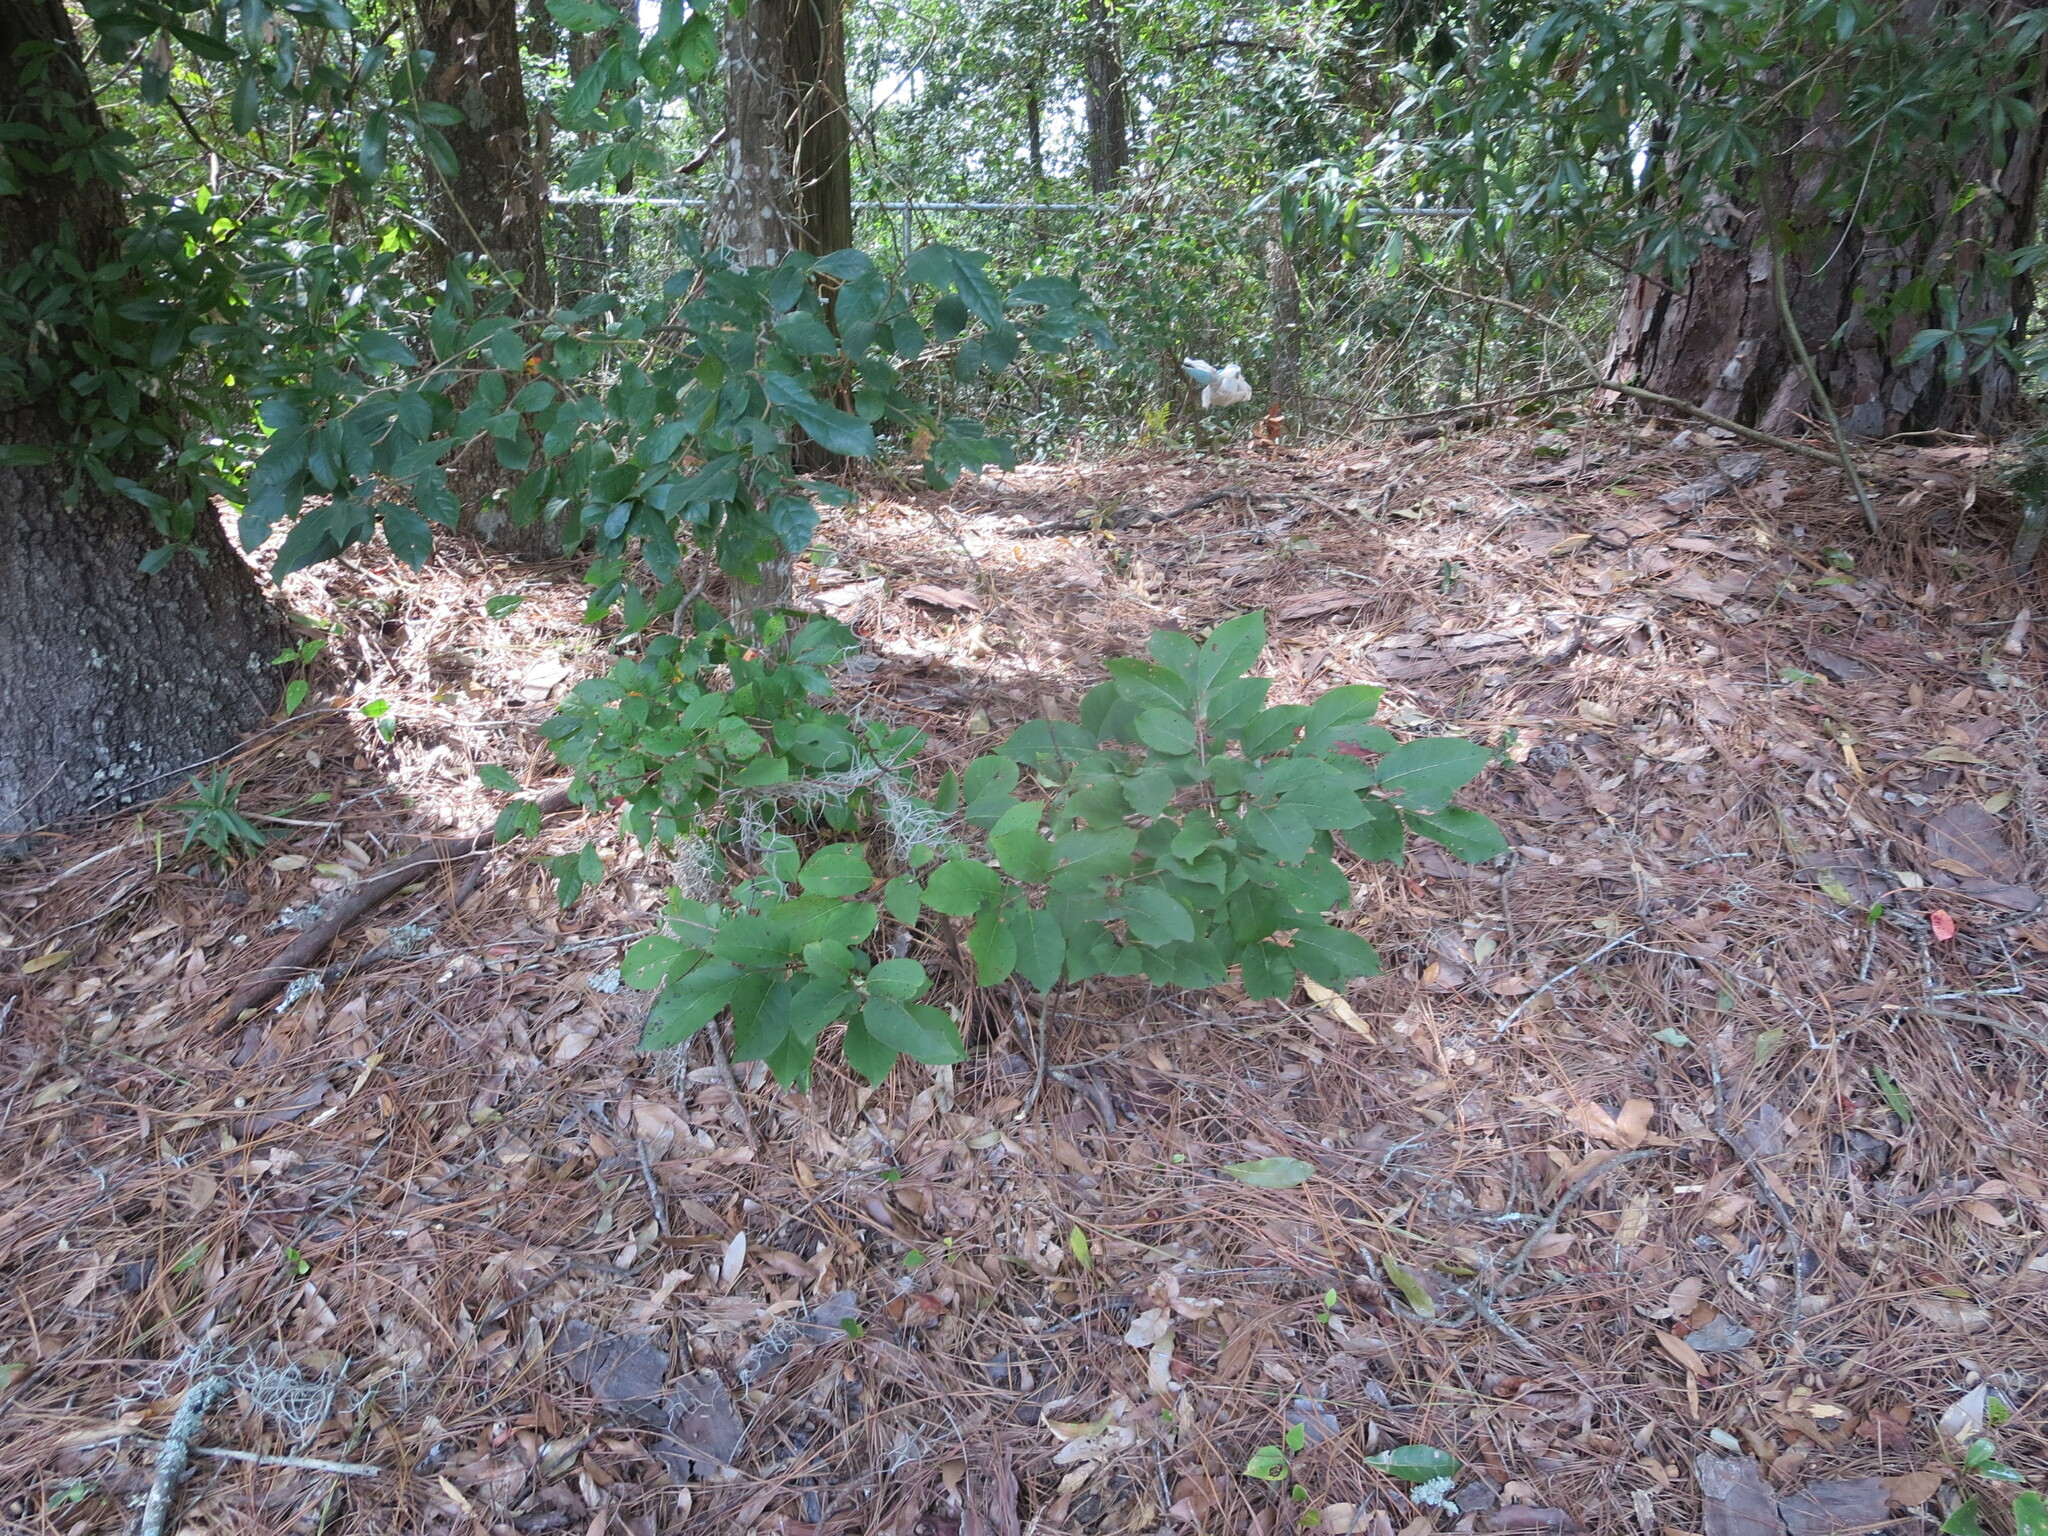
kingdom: Plantae
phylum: Tracheophyta
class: Magnoliopsida
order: Ericales
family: Ebenaceae
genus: Diospyros
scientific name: Diospyros virginiana
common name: Persimmon
